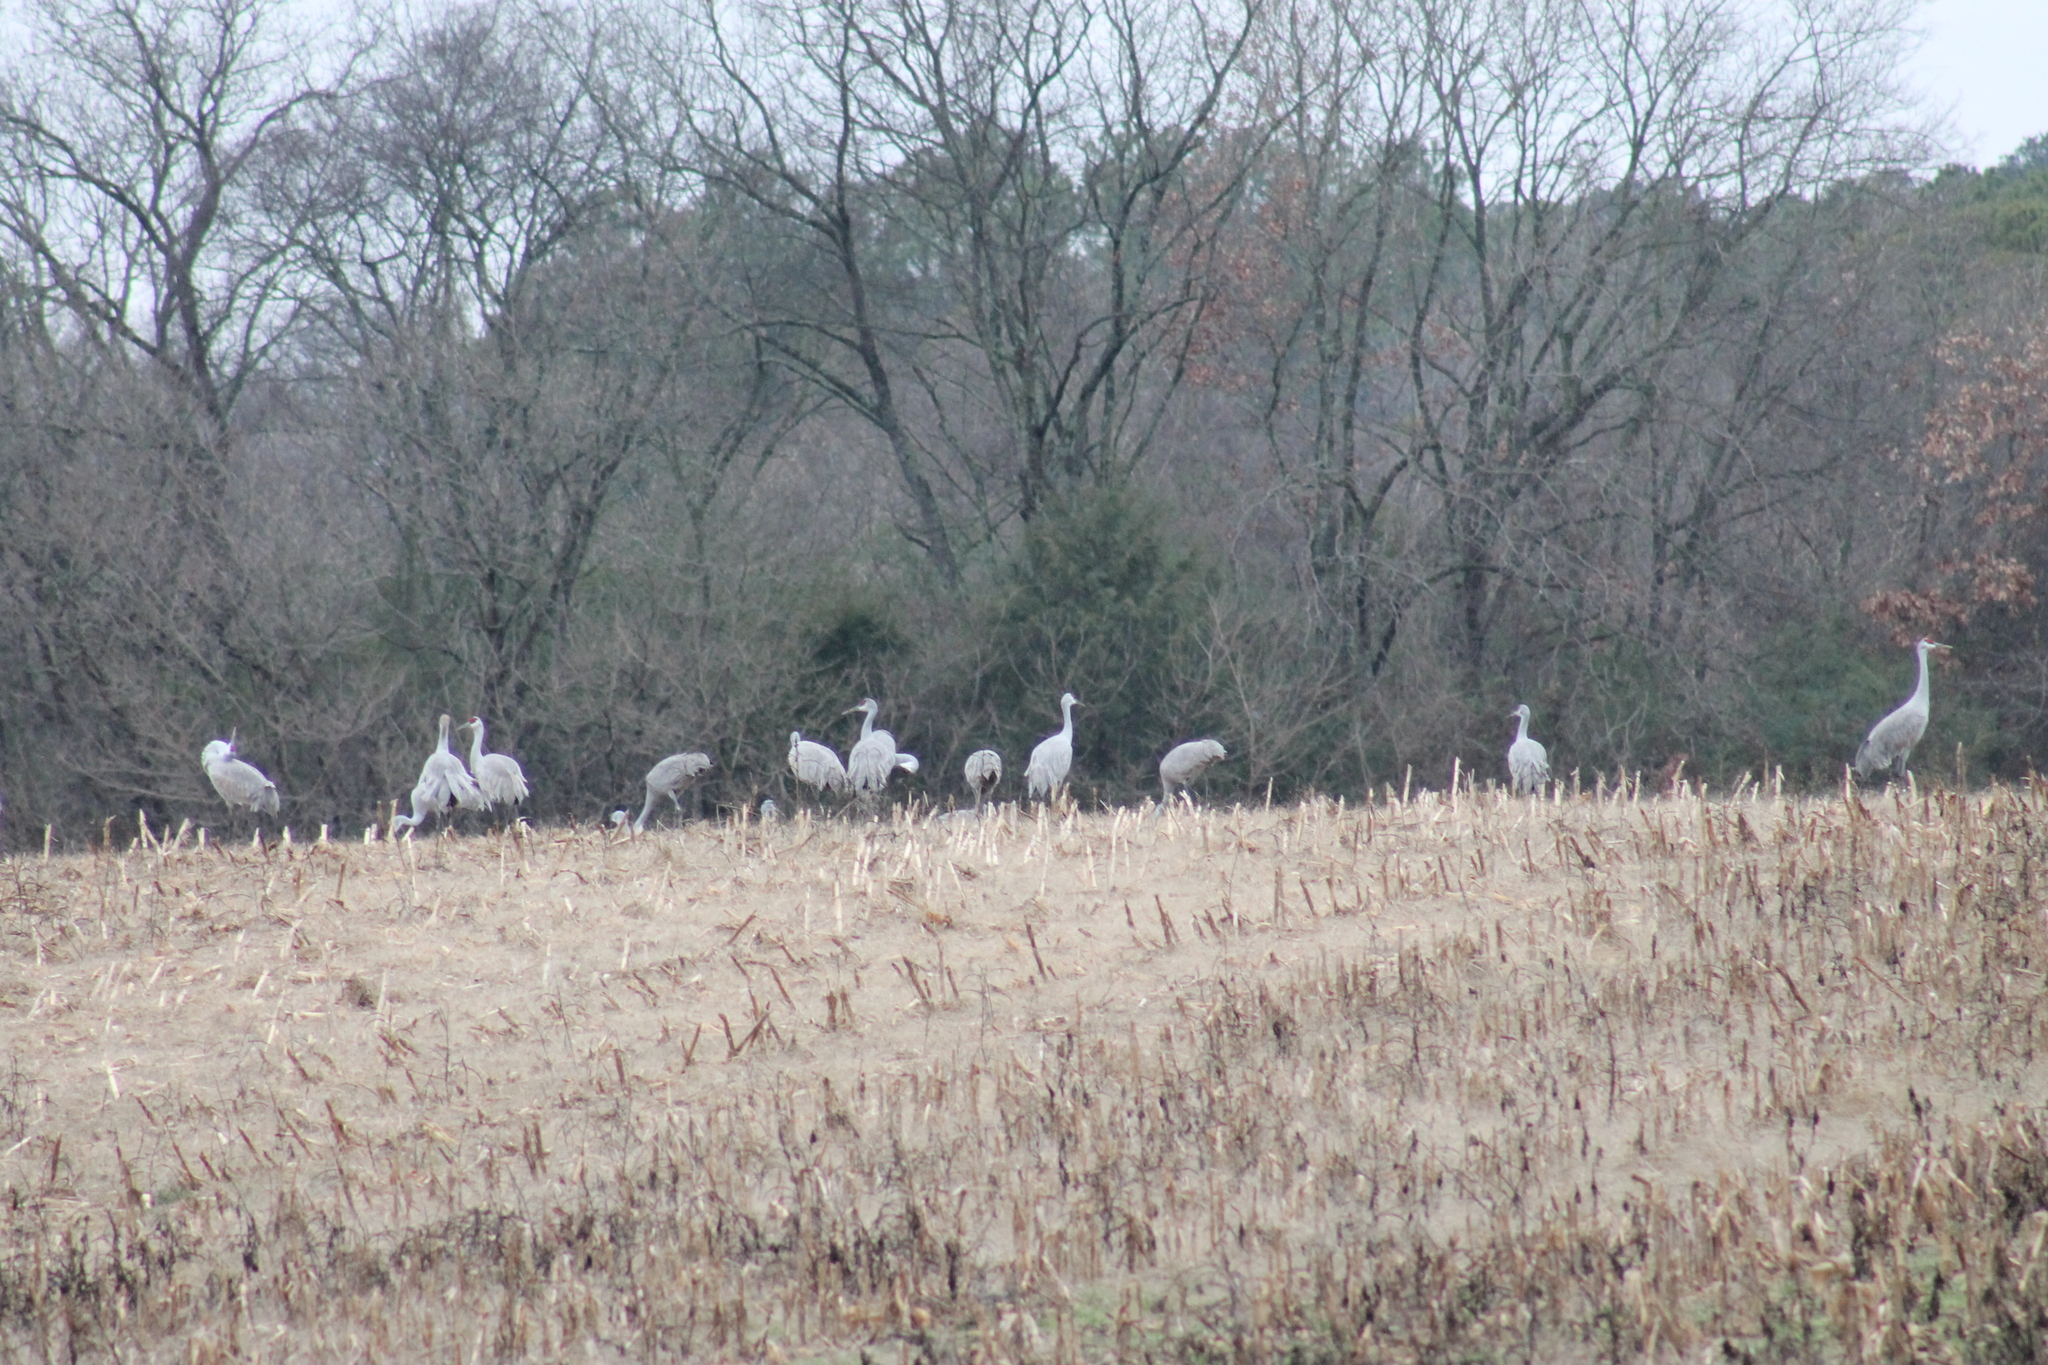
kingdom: Animalia
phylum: Chordata
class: Aves
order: Gruiformes
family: Gruidae
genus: Grus
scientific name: Grus canadensis
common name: Sandhill crane
